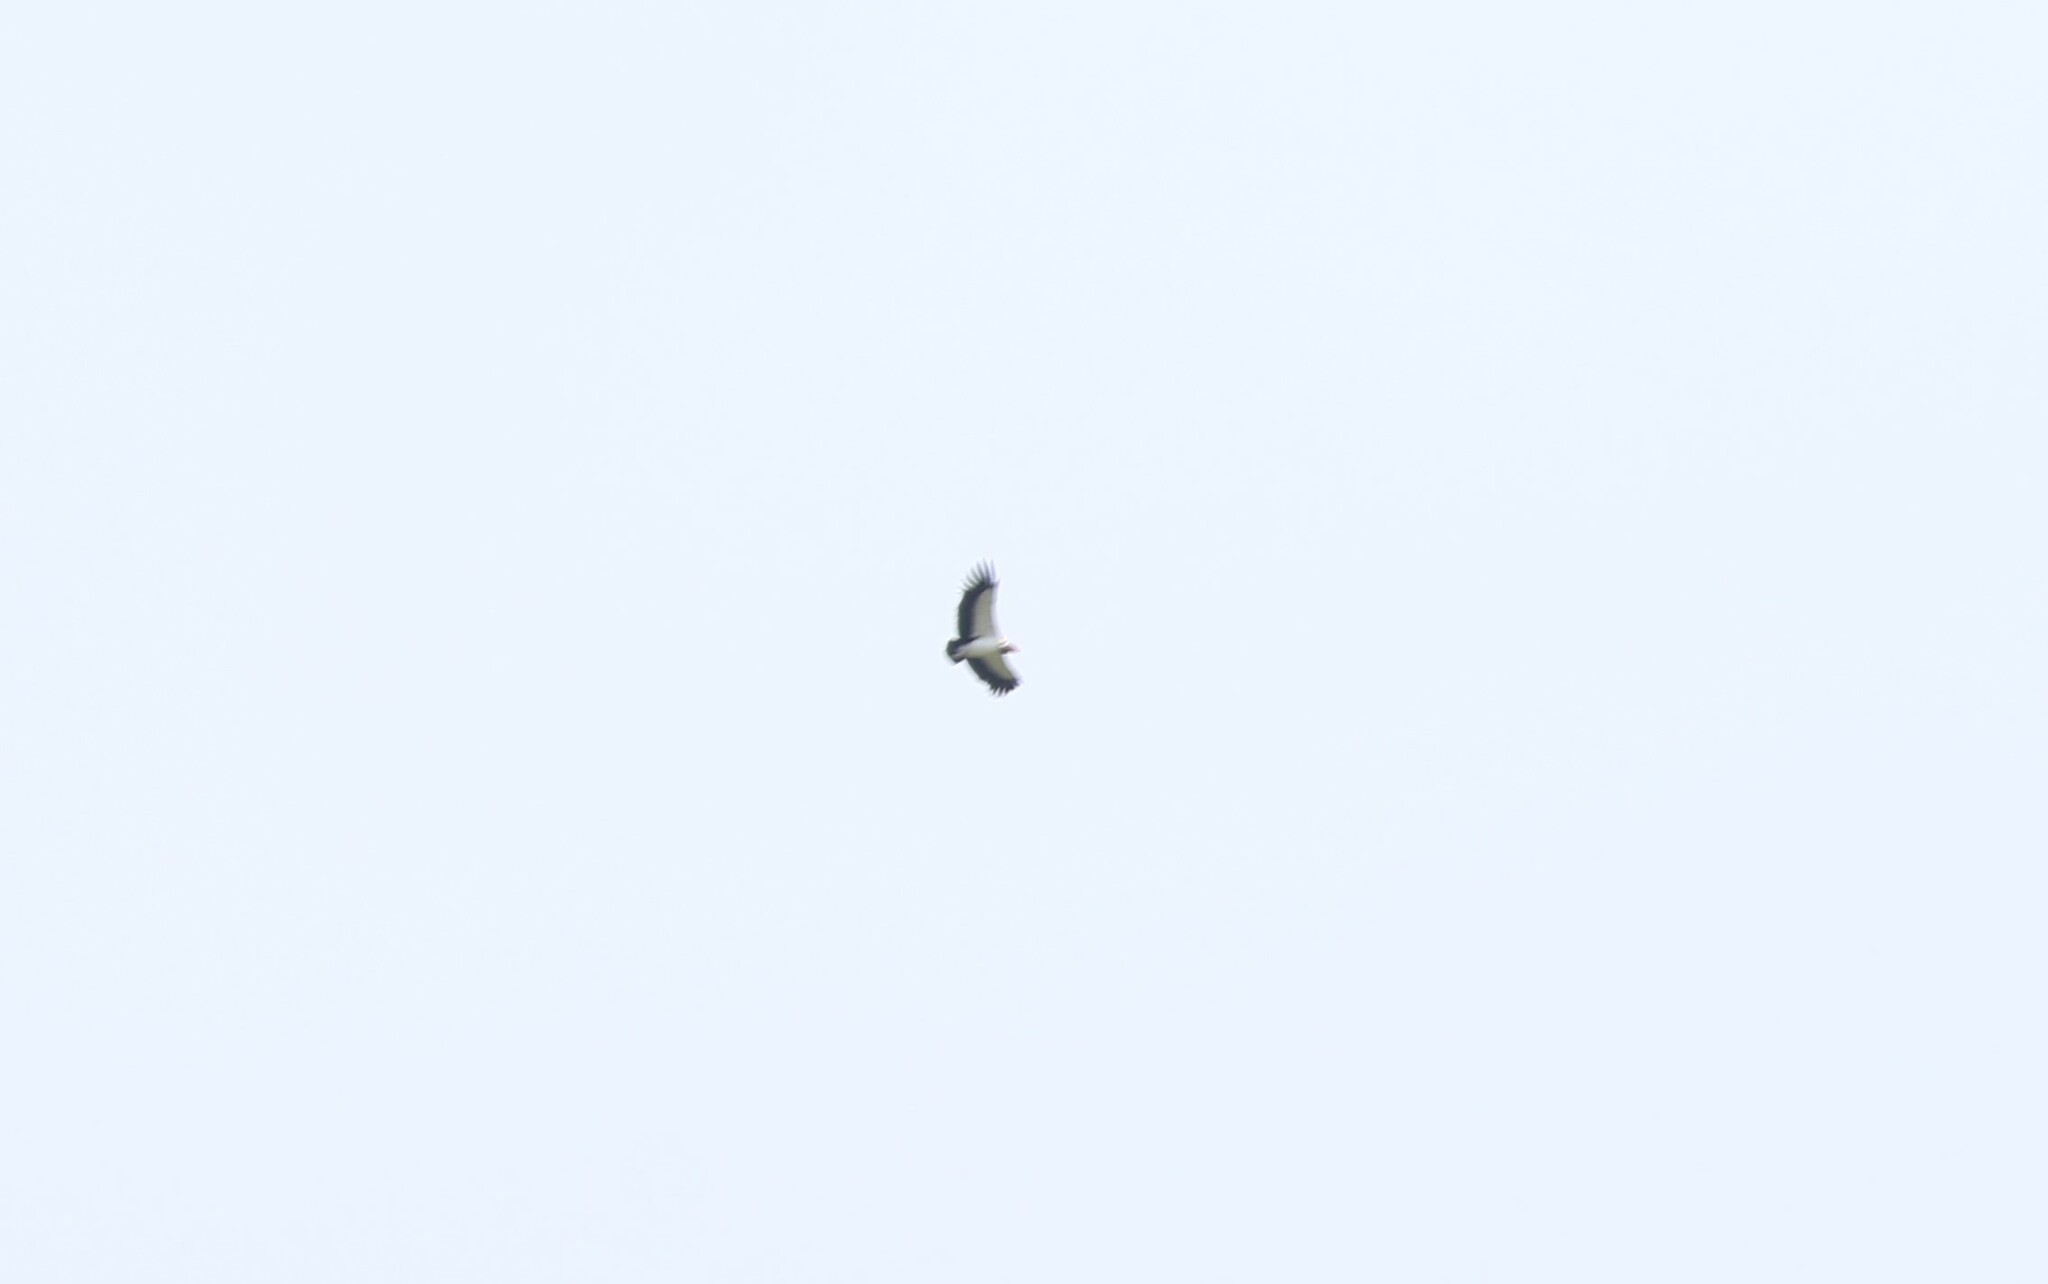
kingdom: Animalia
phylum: Chordata
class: Aves
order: Accipitriformes
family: Cathartidae
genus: Sarcoramphus
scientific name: Sarcoramphus papa
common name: King vulture
